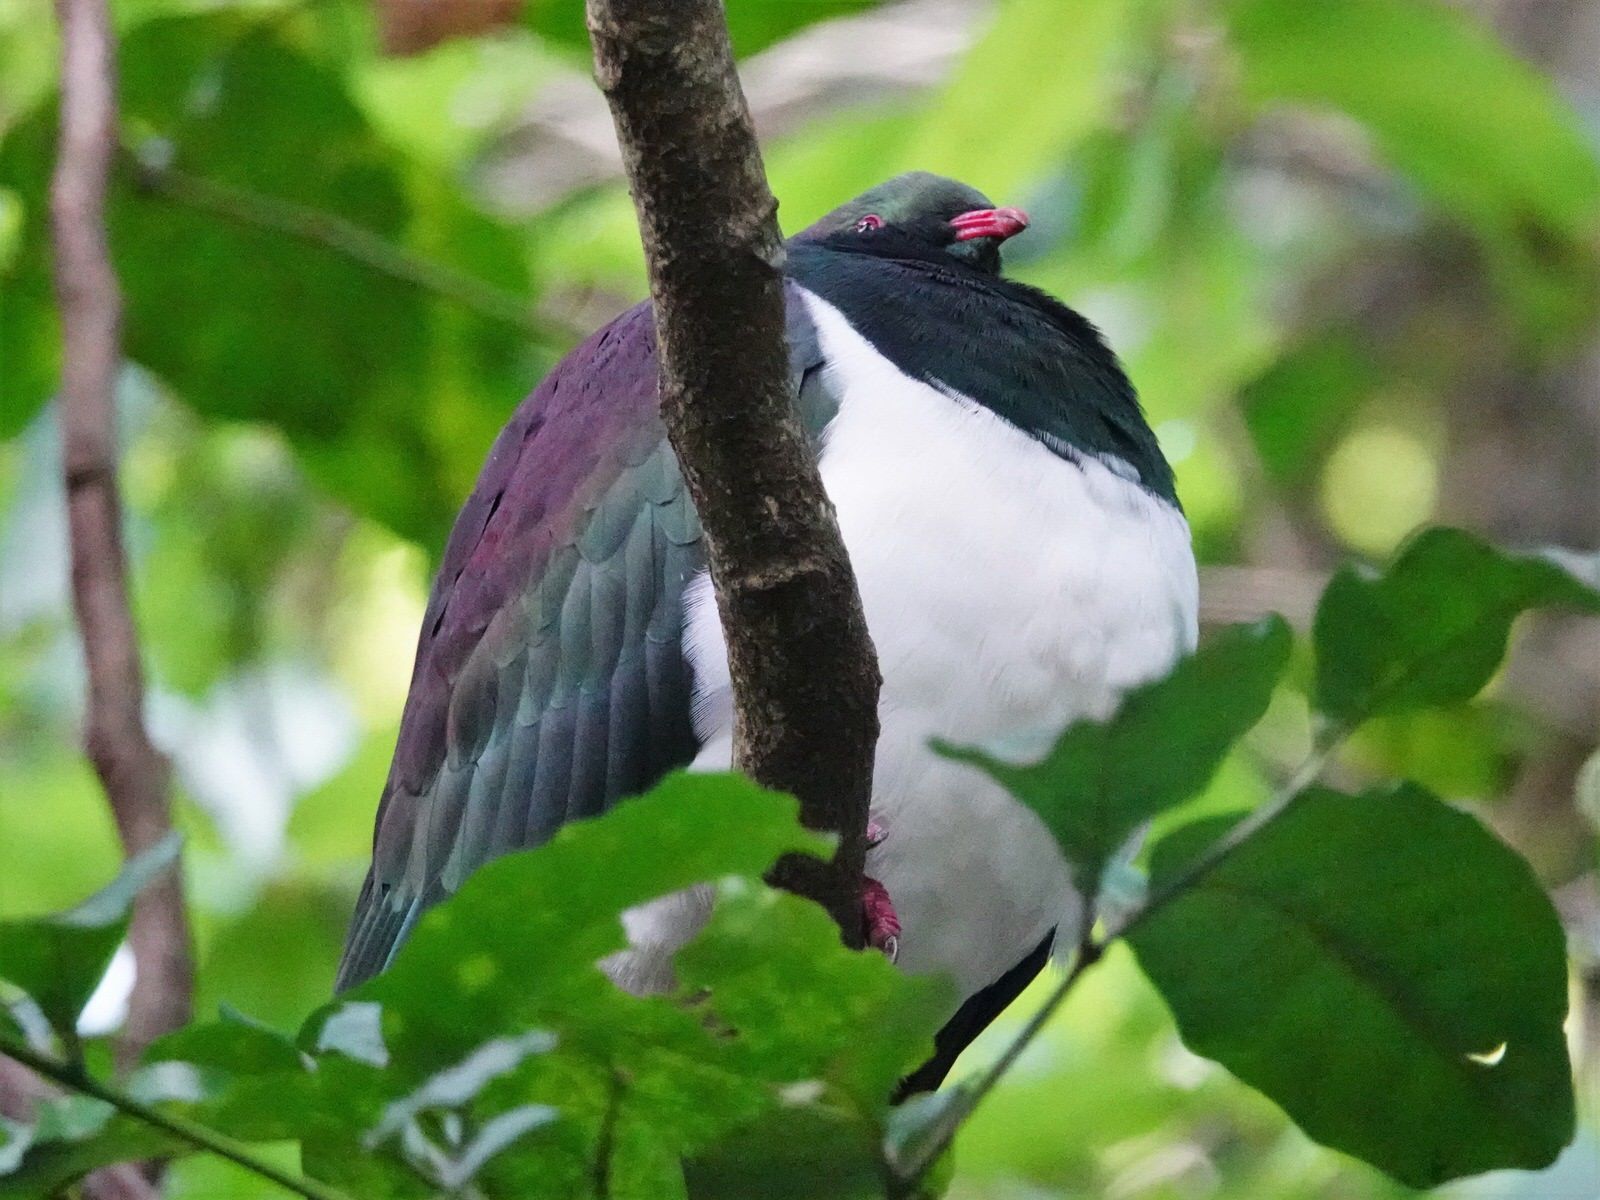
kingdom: Animalia
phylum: Chordata
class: Aves
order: Columbiformes
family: Columbidae
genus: Hemiphaga
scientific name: Hemiphaga novaeseelandiae
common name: New zealand pigeon
